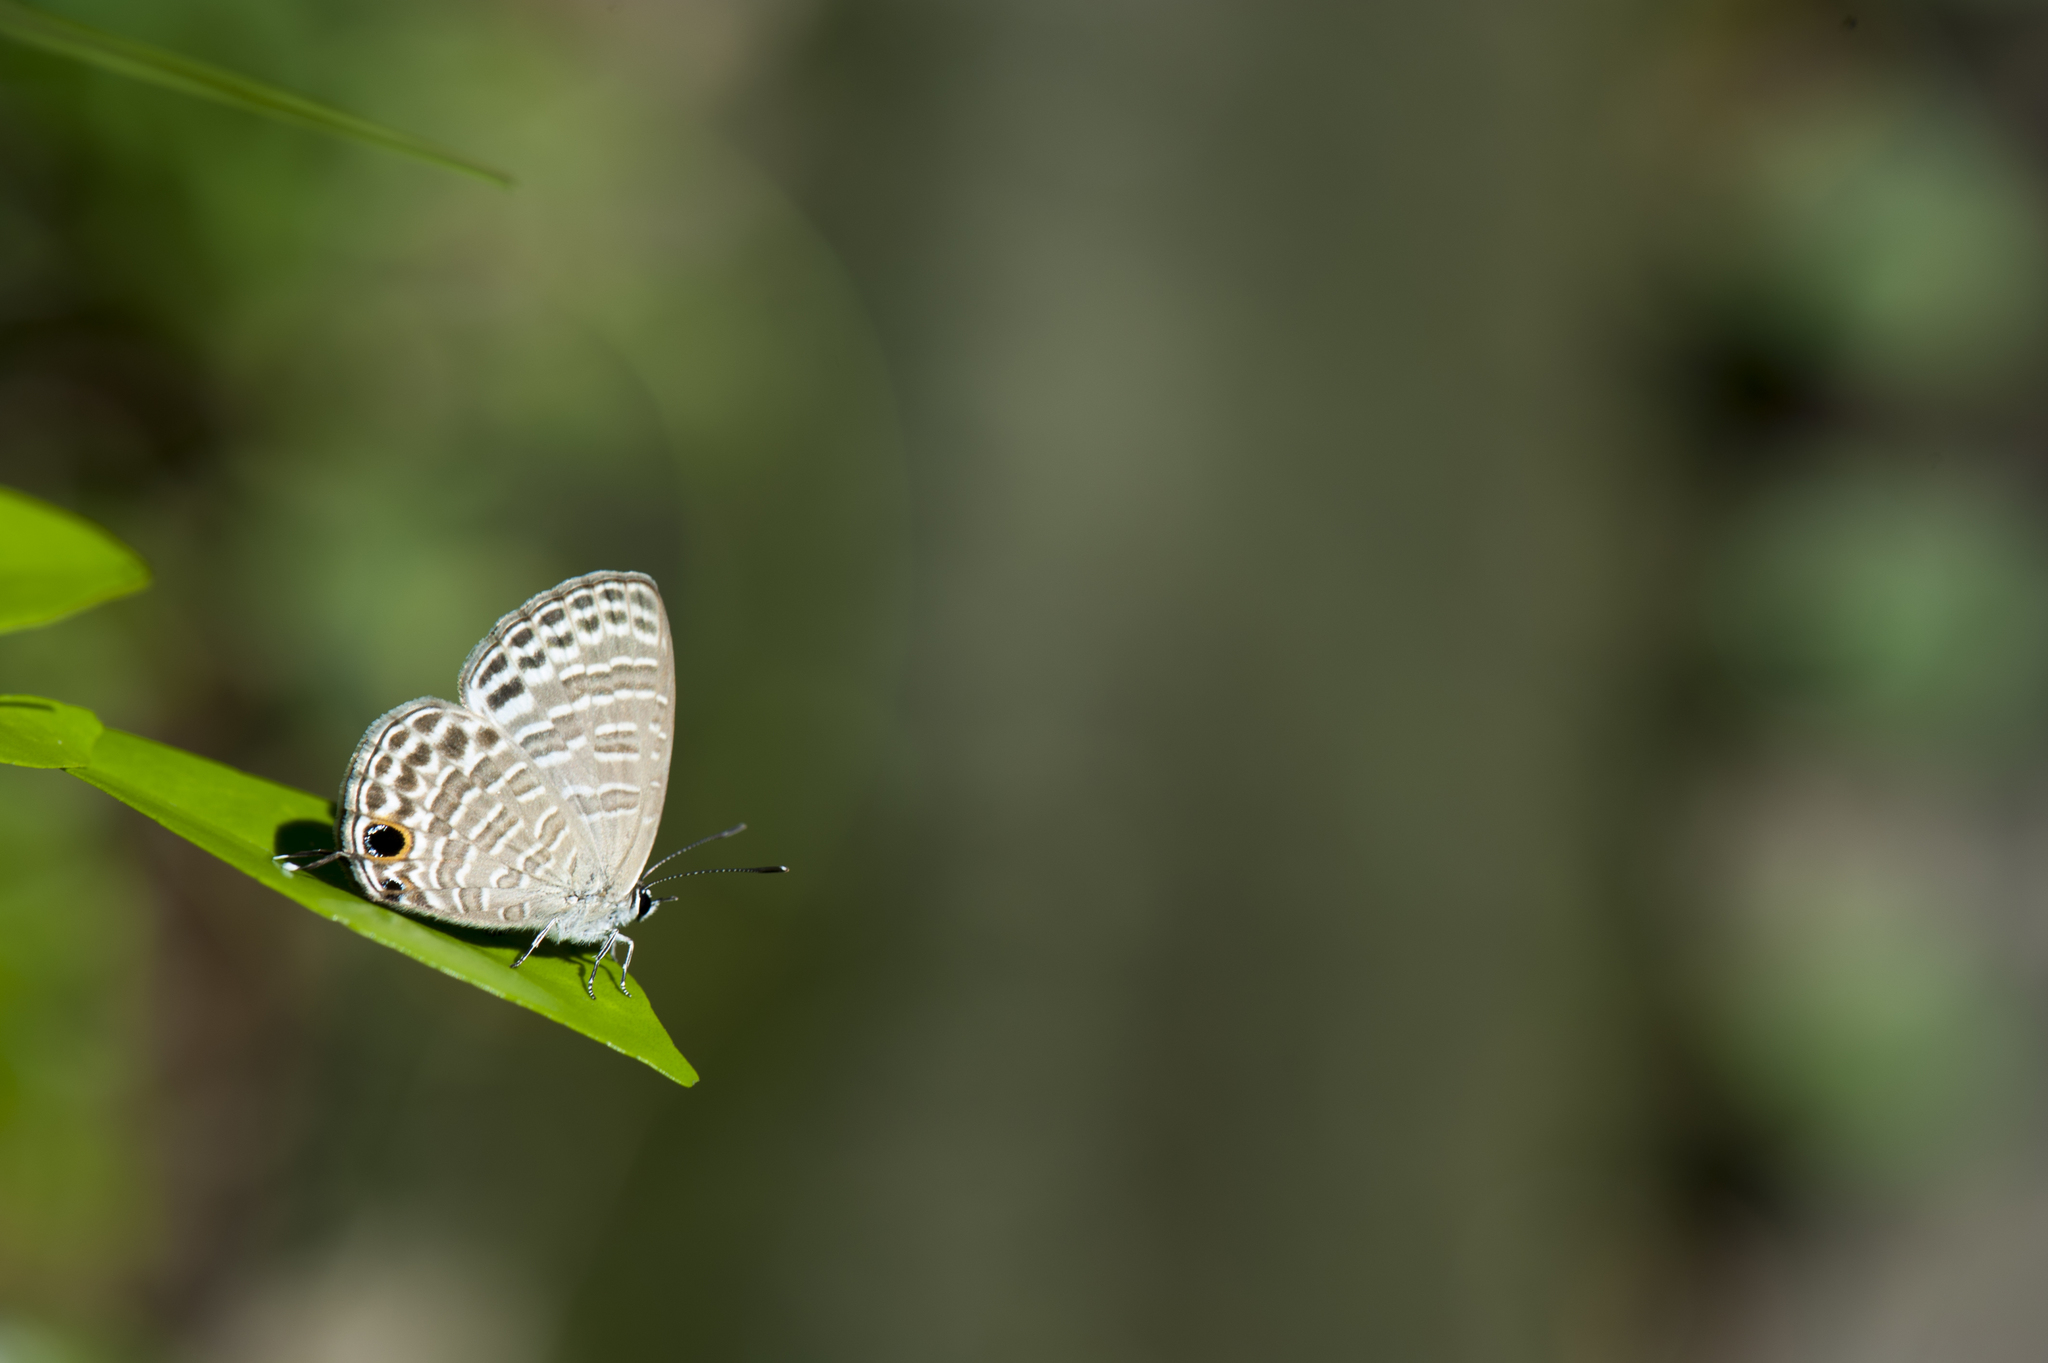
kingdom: Animalia
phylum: Arthropoda
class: Insecta
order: Lepidoptera
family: Lycaenidae
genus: Nacaduba
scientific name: Nacaduba kurava
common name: Transparent 6-line blue
